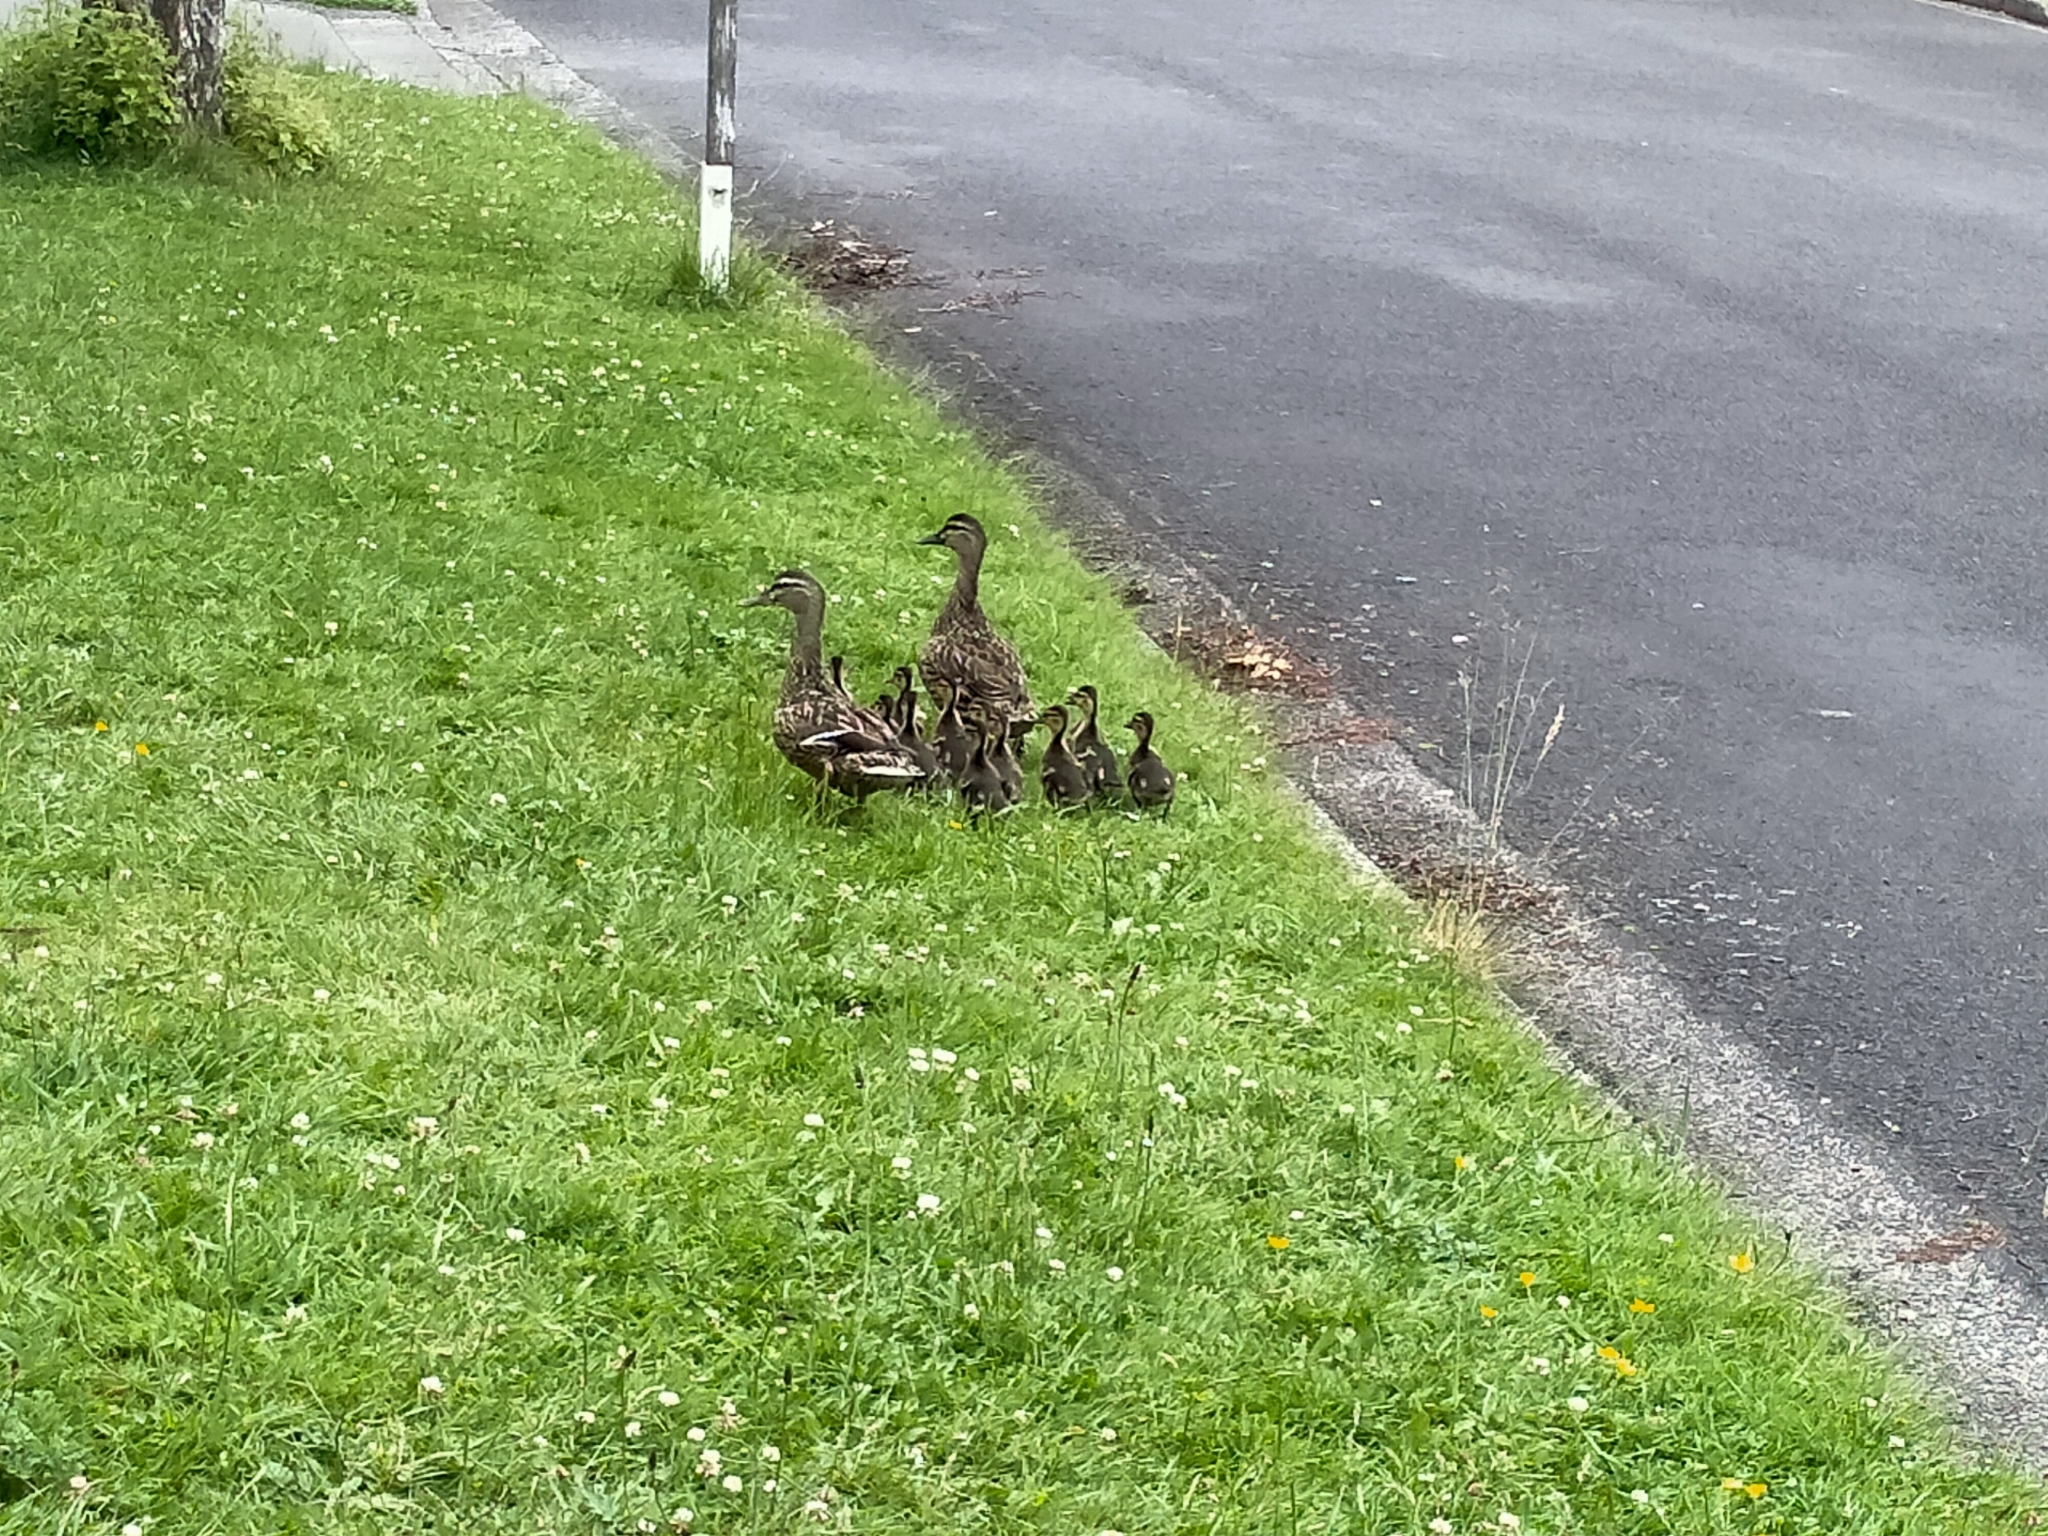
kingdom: Animalia
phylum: Chordata
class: Aves
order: Anseriformes
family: Anatidae
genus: Anas
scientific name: Anas
